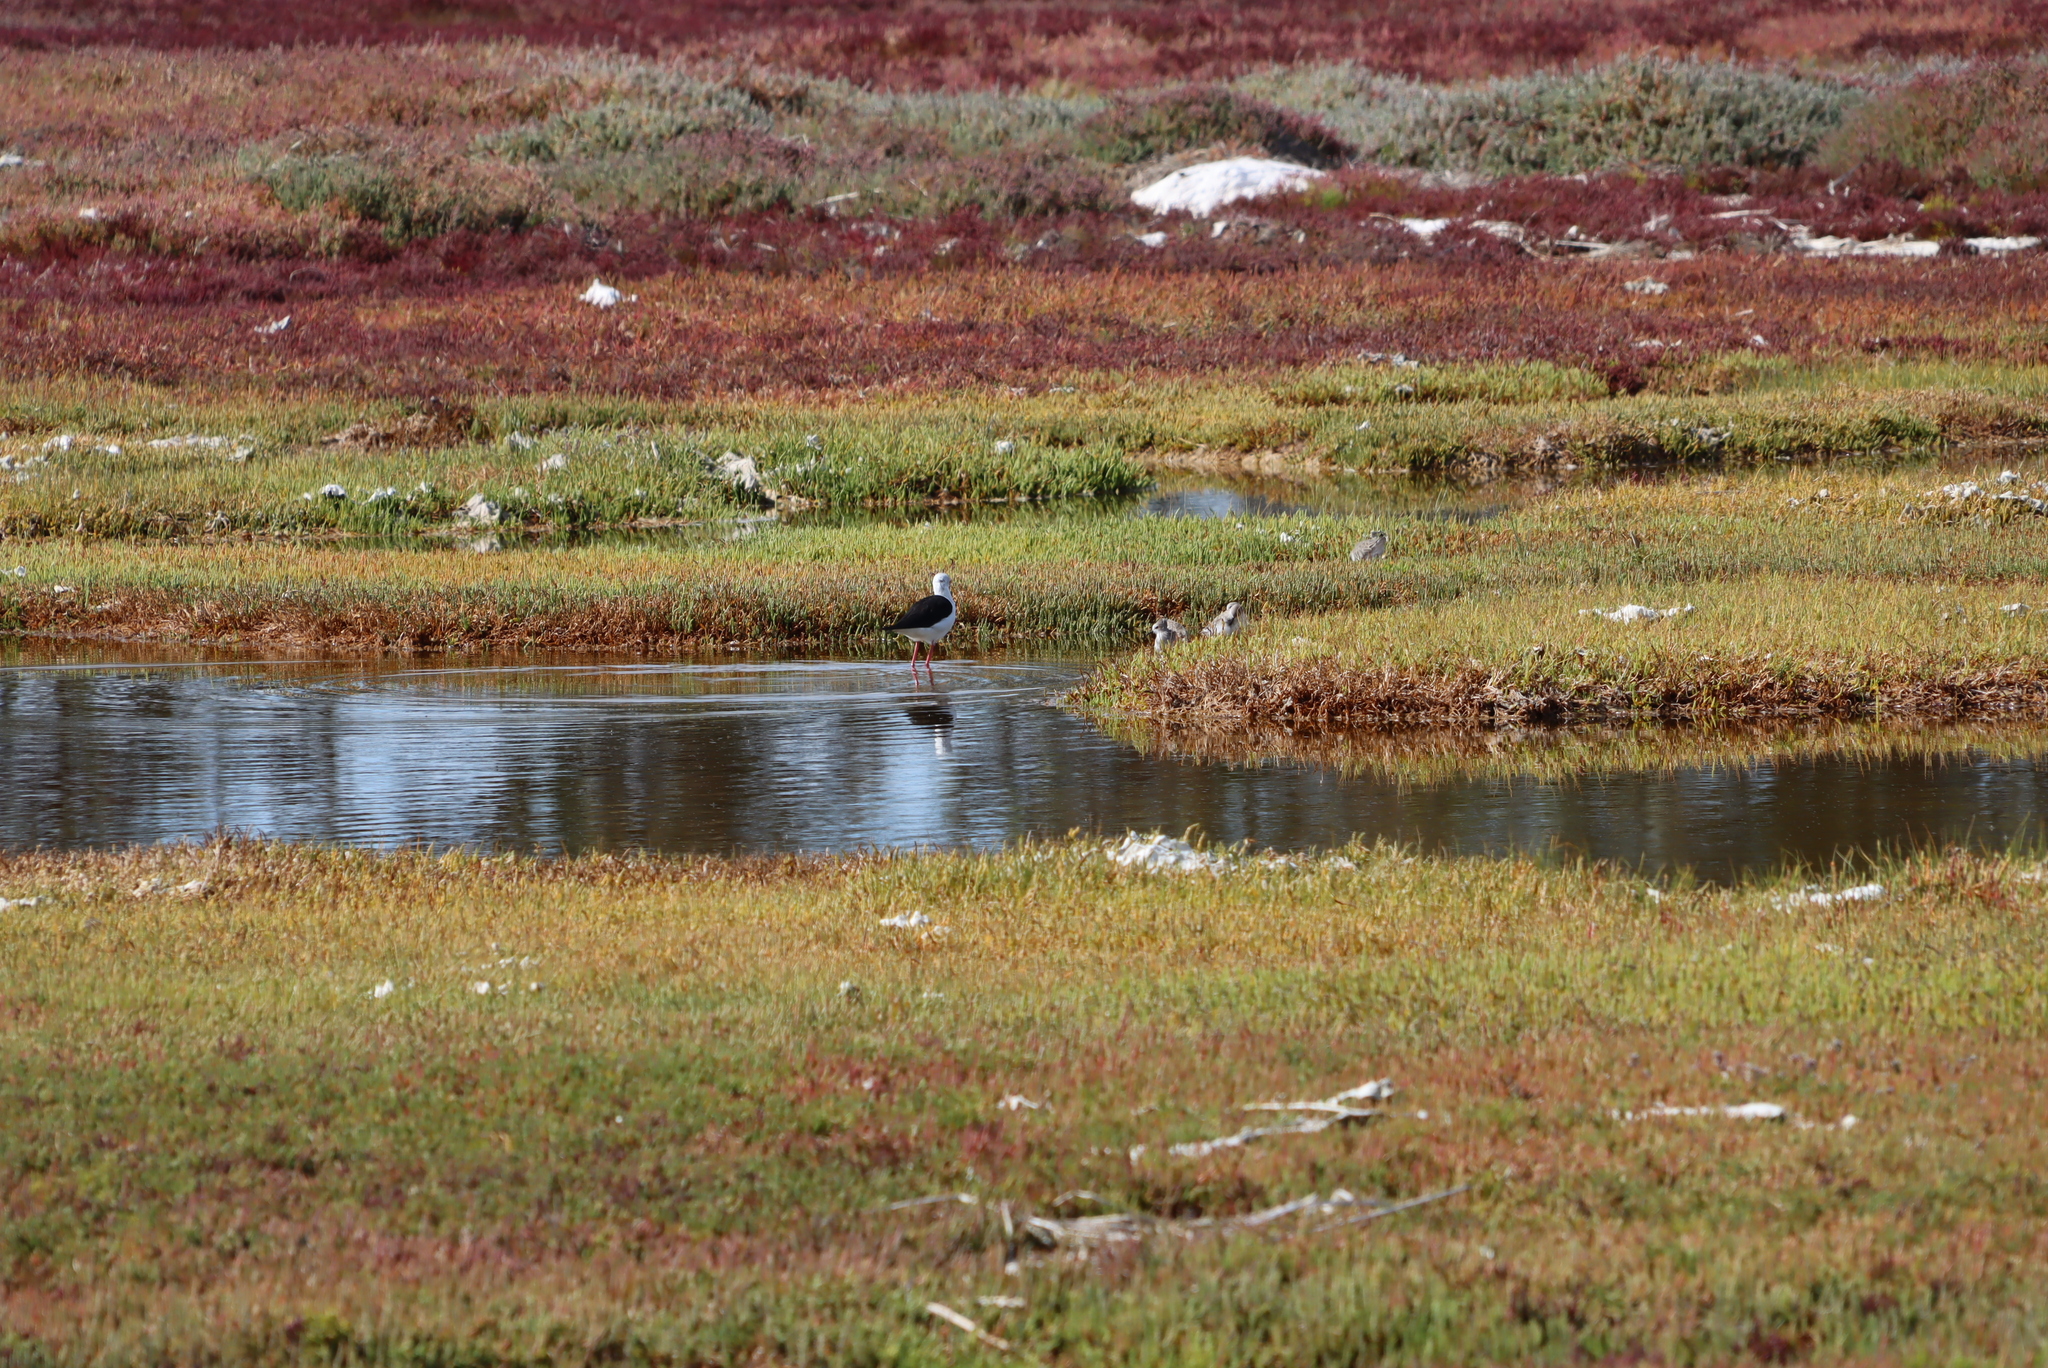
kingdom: Animalia
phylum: Chordata
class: Aves
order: Charadriiformes
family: Recurvirostridae
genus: Himantopus
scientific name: Himantopus himantopus
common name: Black-winged stilt
